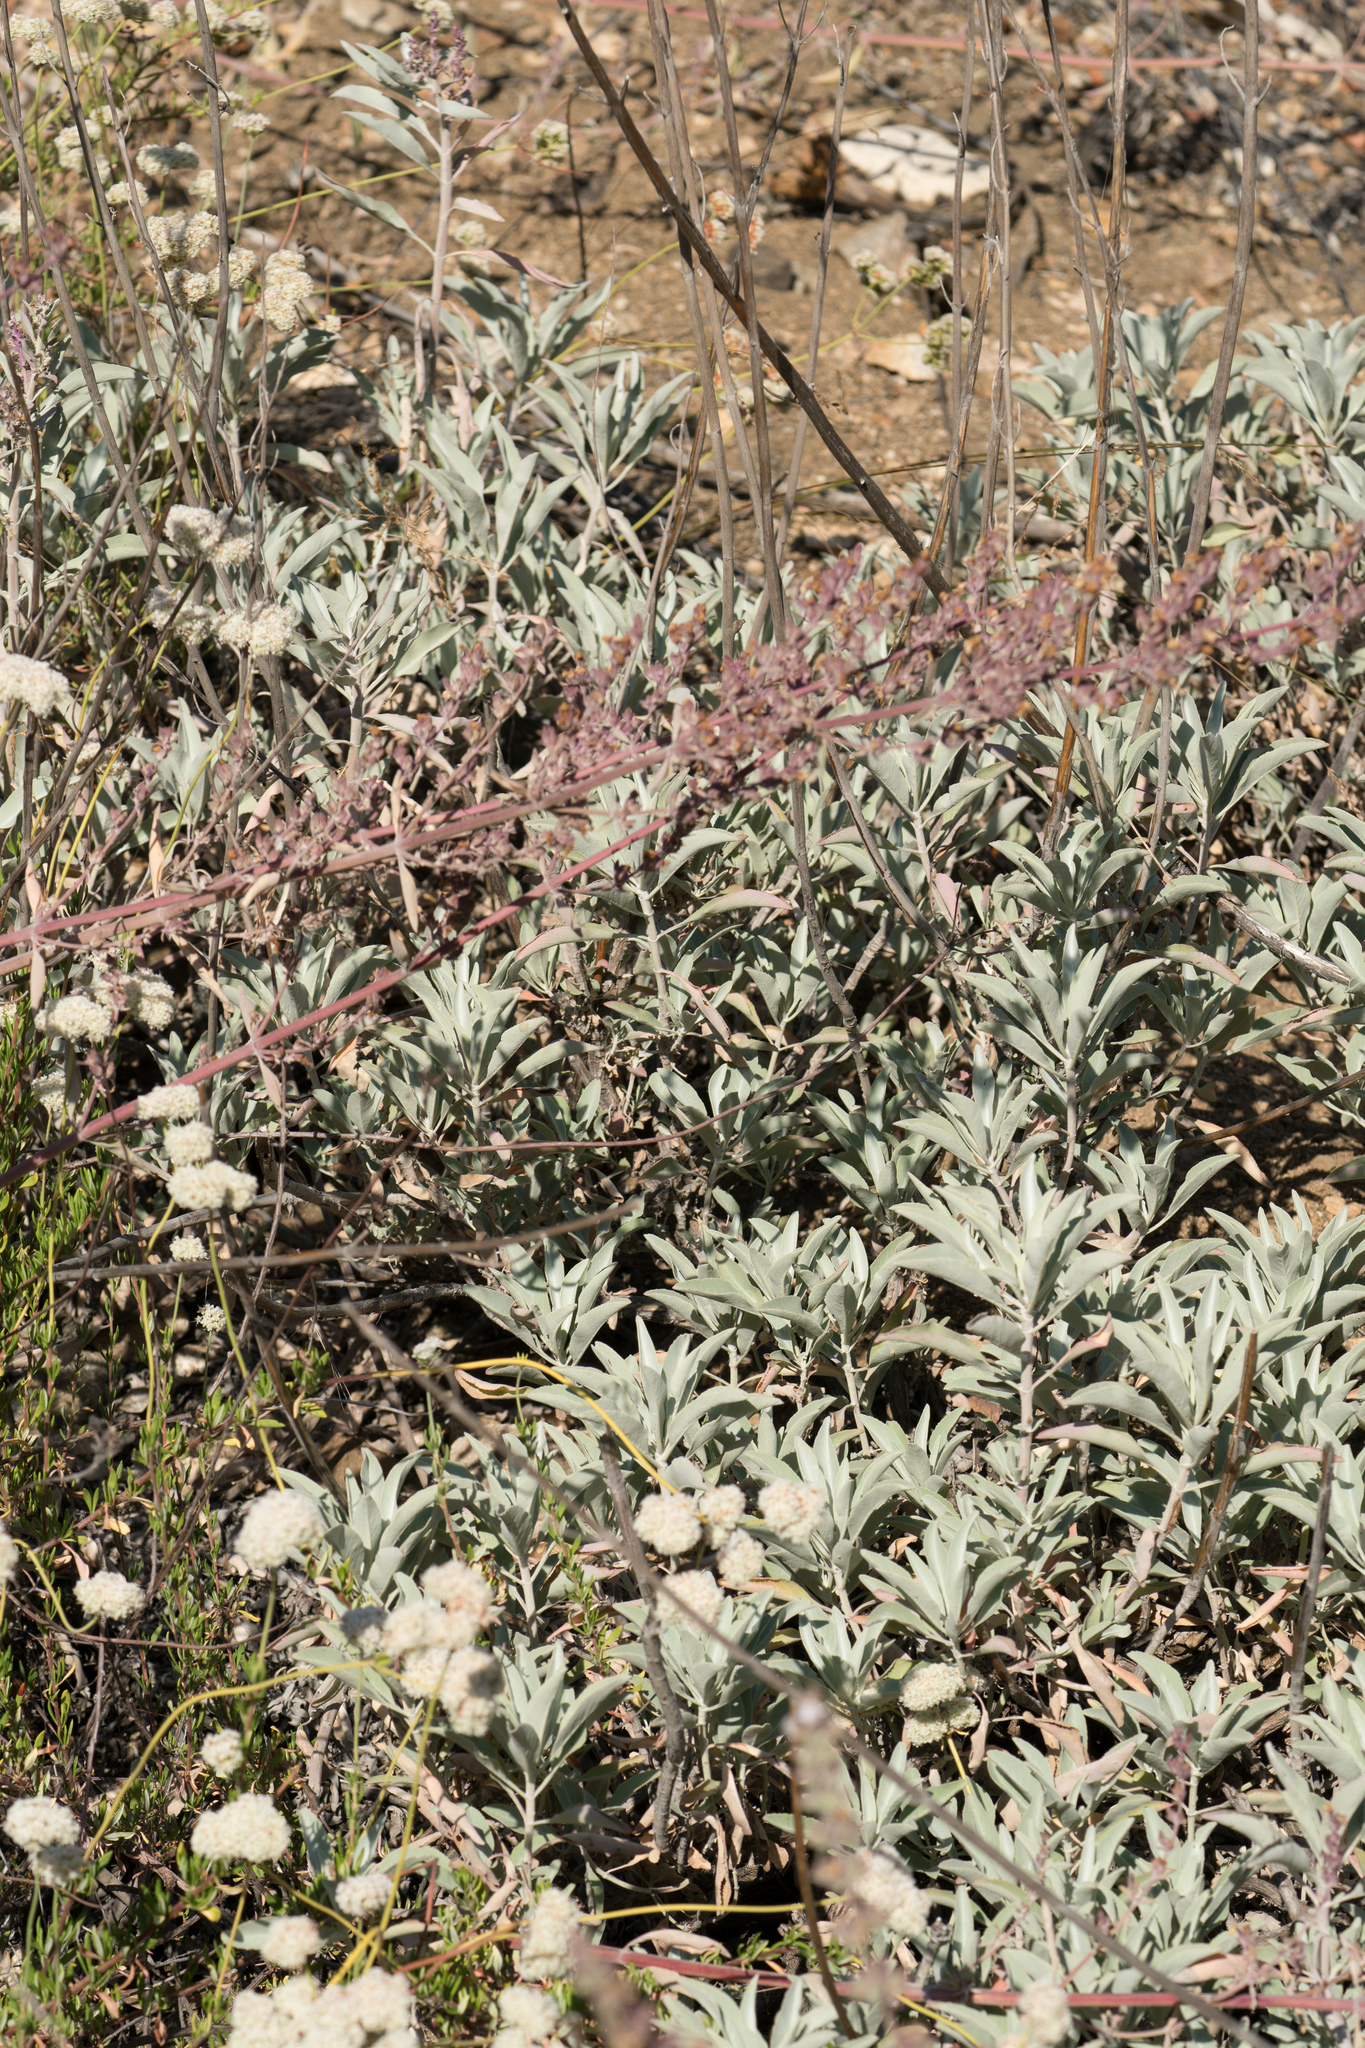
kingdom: Plantae
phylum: Tracheophyta
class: Magnoliopsida
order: Lamiales
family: Lamiaceae
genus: Salvia
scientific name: Salvia apiana
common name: White sage
